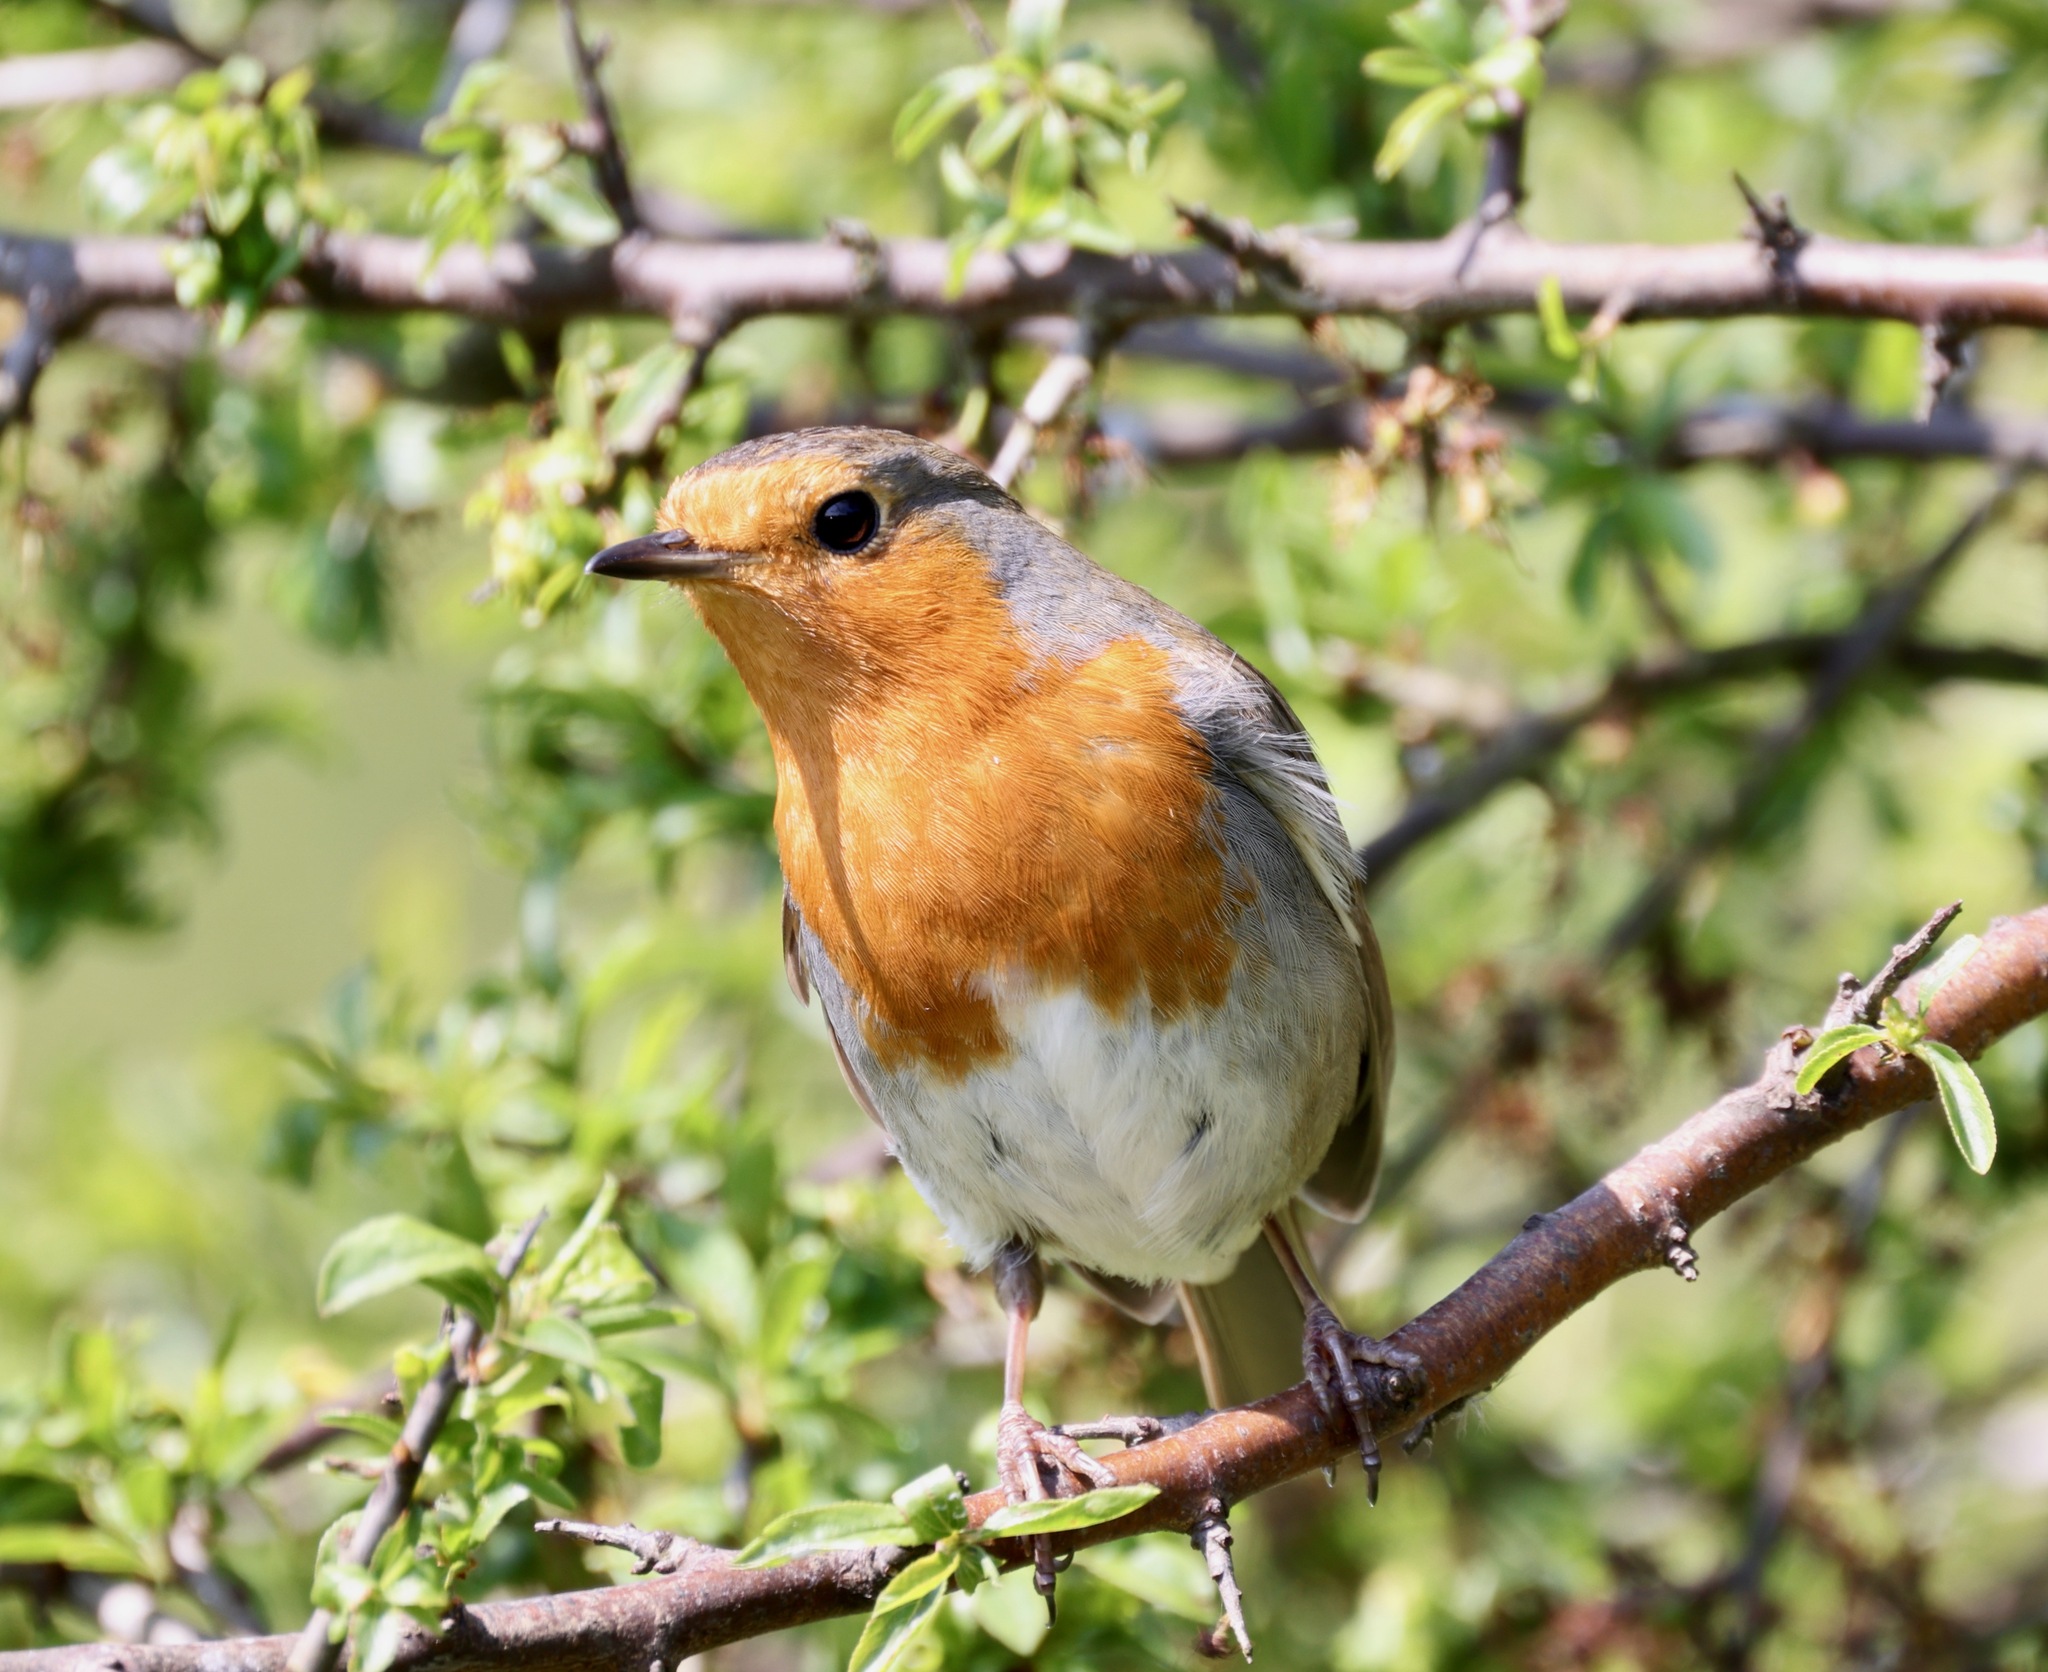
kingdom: Animalia
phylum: Chordata
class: Aves
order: Passeriformes
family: Muscicapidae
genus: Erithacus
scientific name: Erithacus rubecula
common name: European robin
